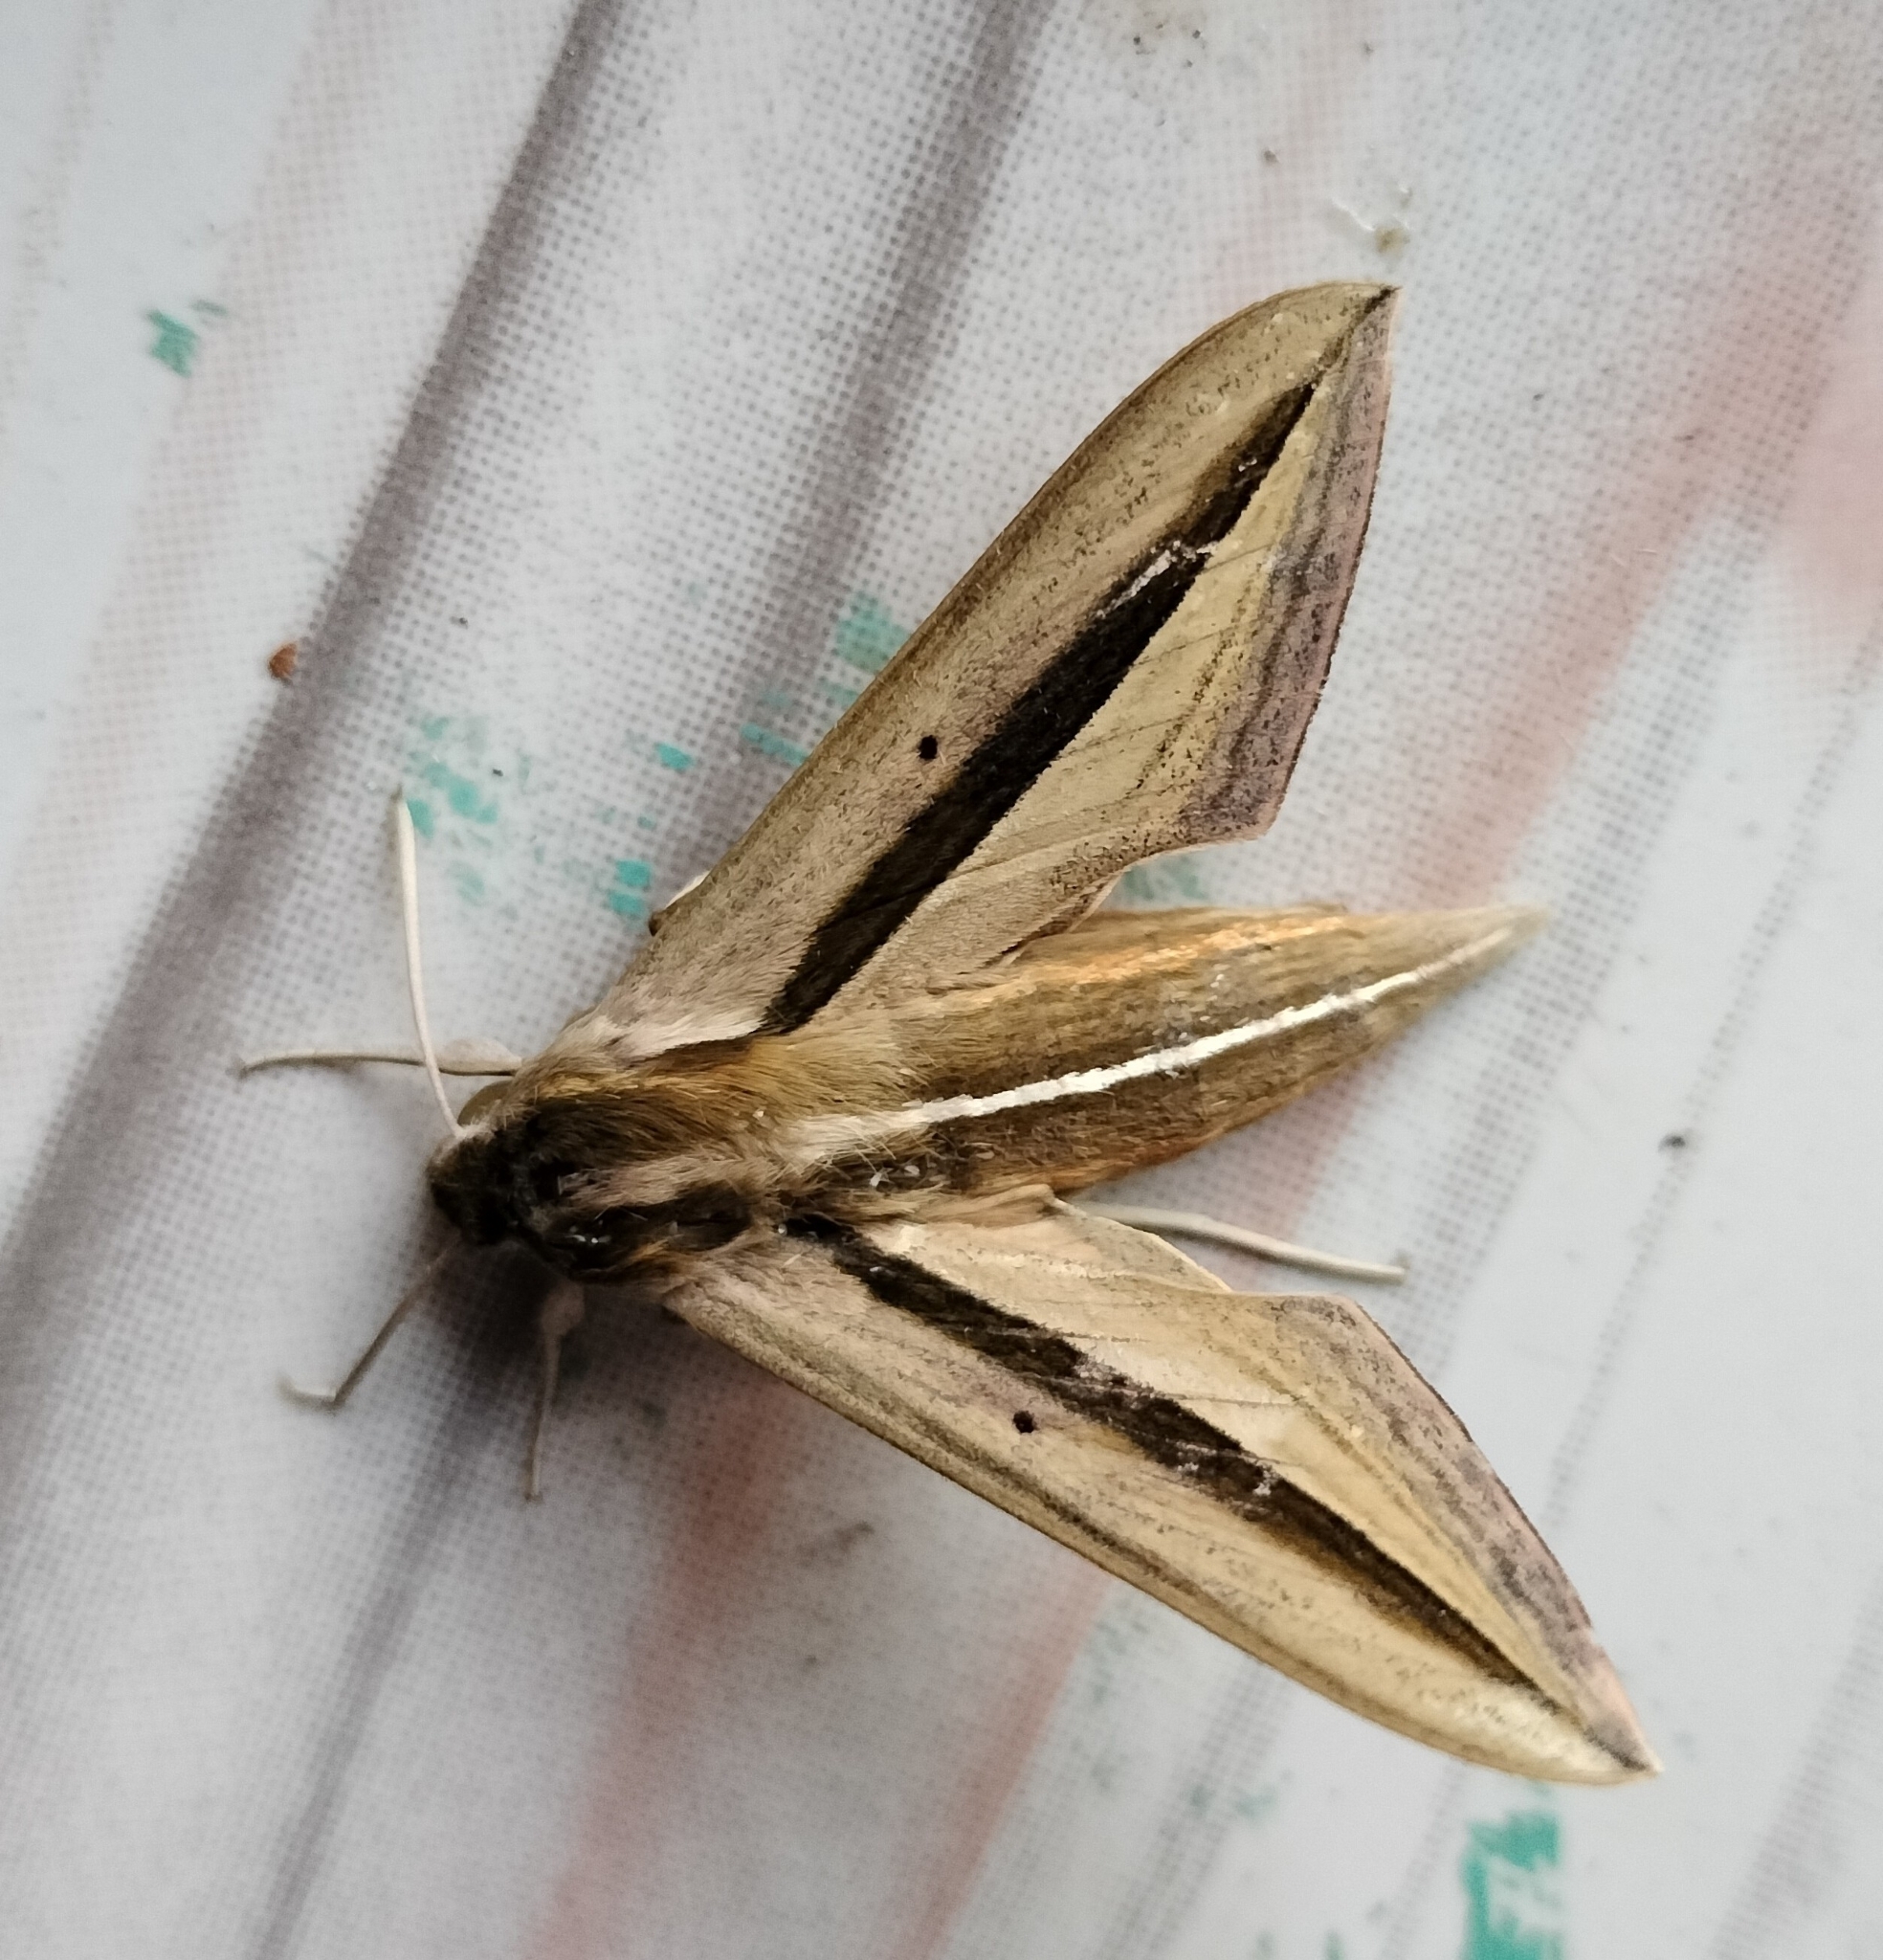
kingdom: Animalia
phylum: Arthropoda
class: Insecta
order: Lepidoptera
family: Sphingidae
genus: Theretra
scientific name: Theretra silhetensis
